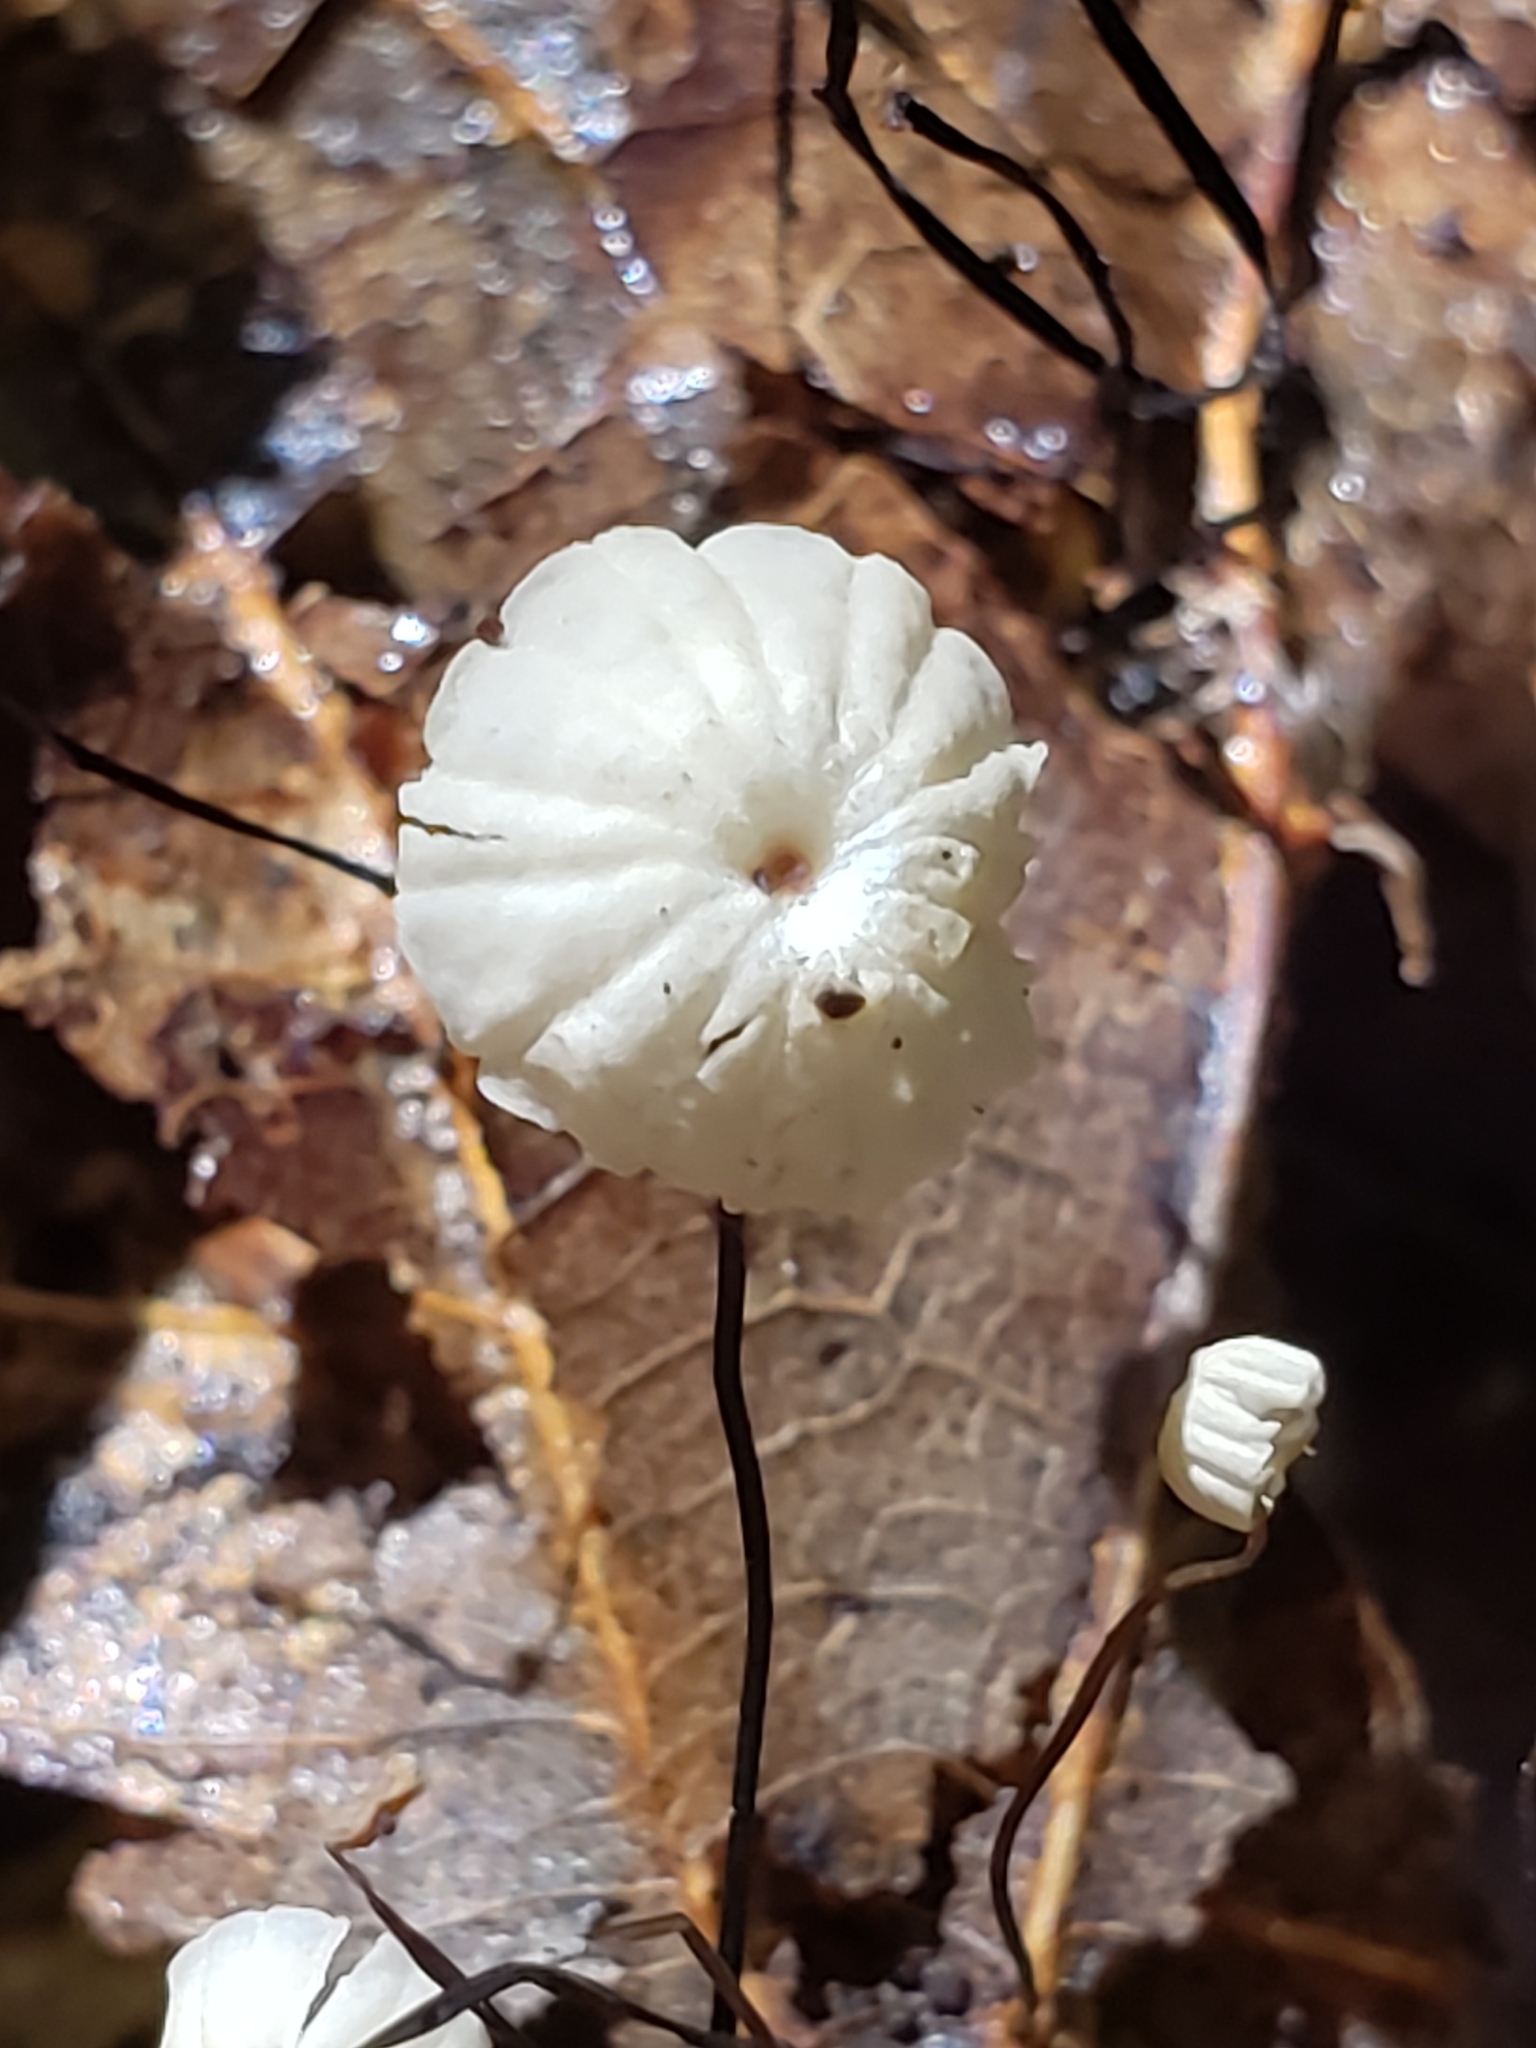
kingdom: Fungi
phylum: Basidiomycota
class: Agaricomycetes
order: Agaricales
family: Marasmiaceae
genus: Marasmius
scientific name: Marasmius capillaris
